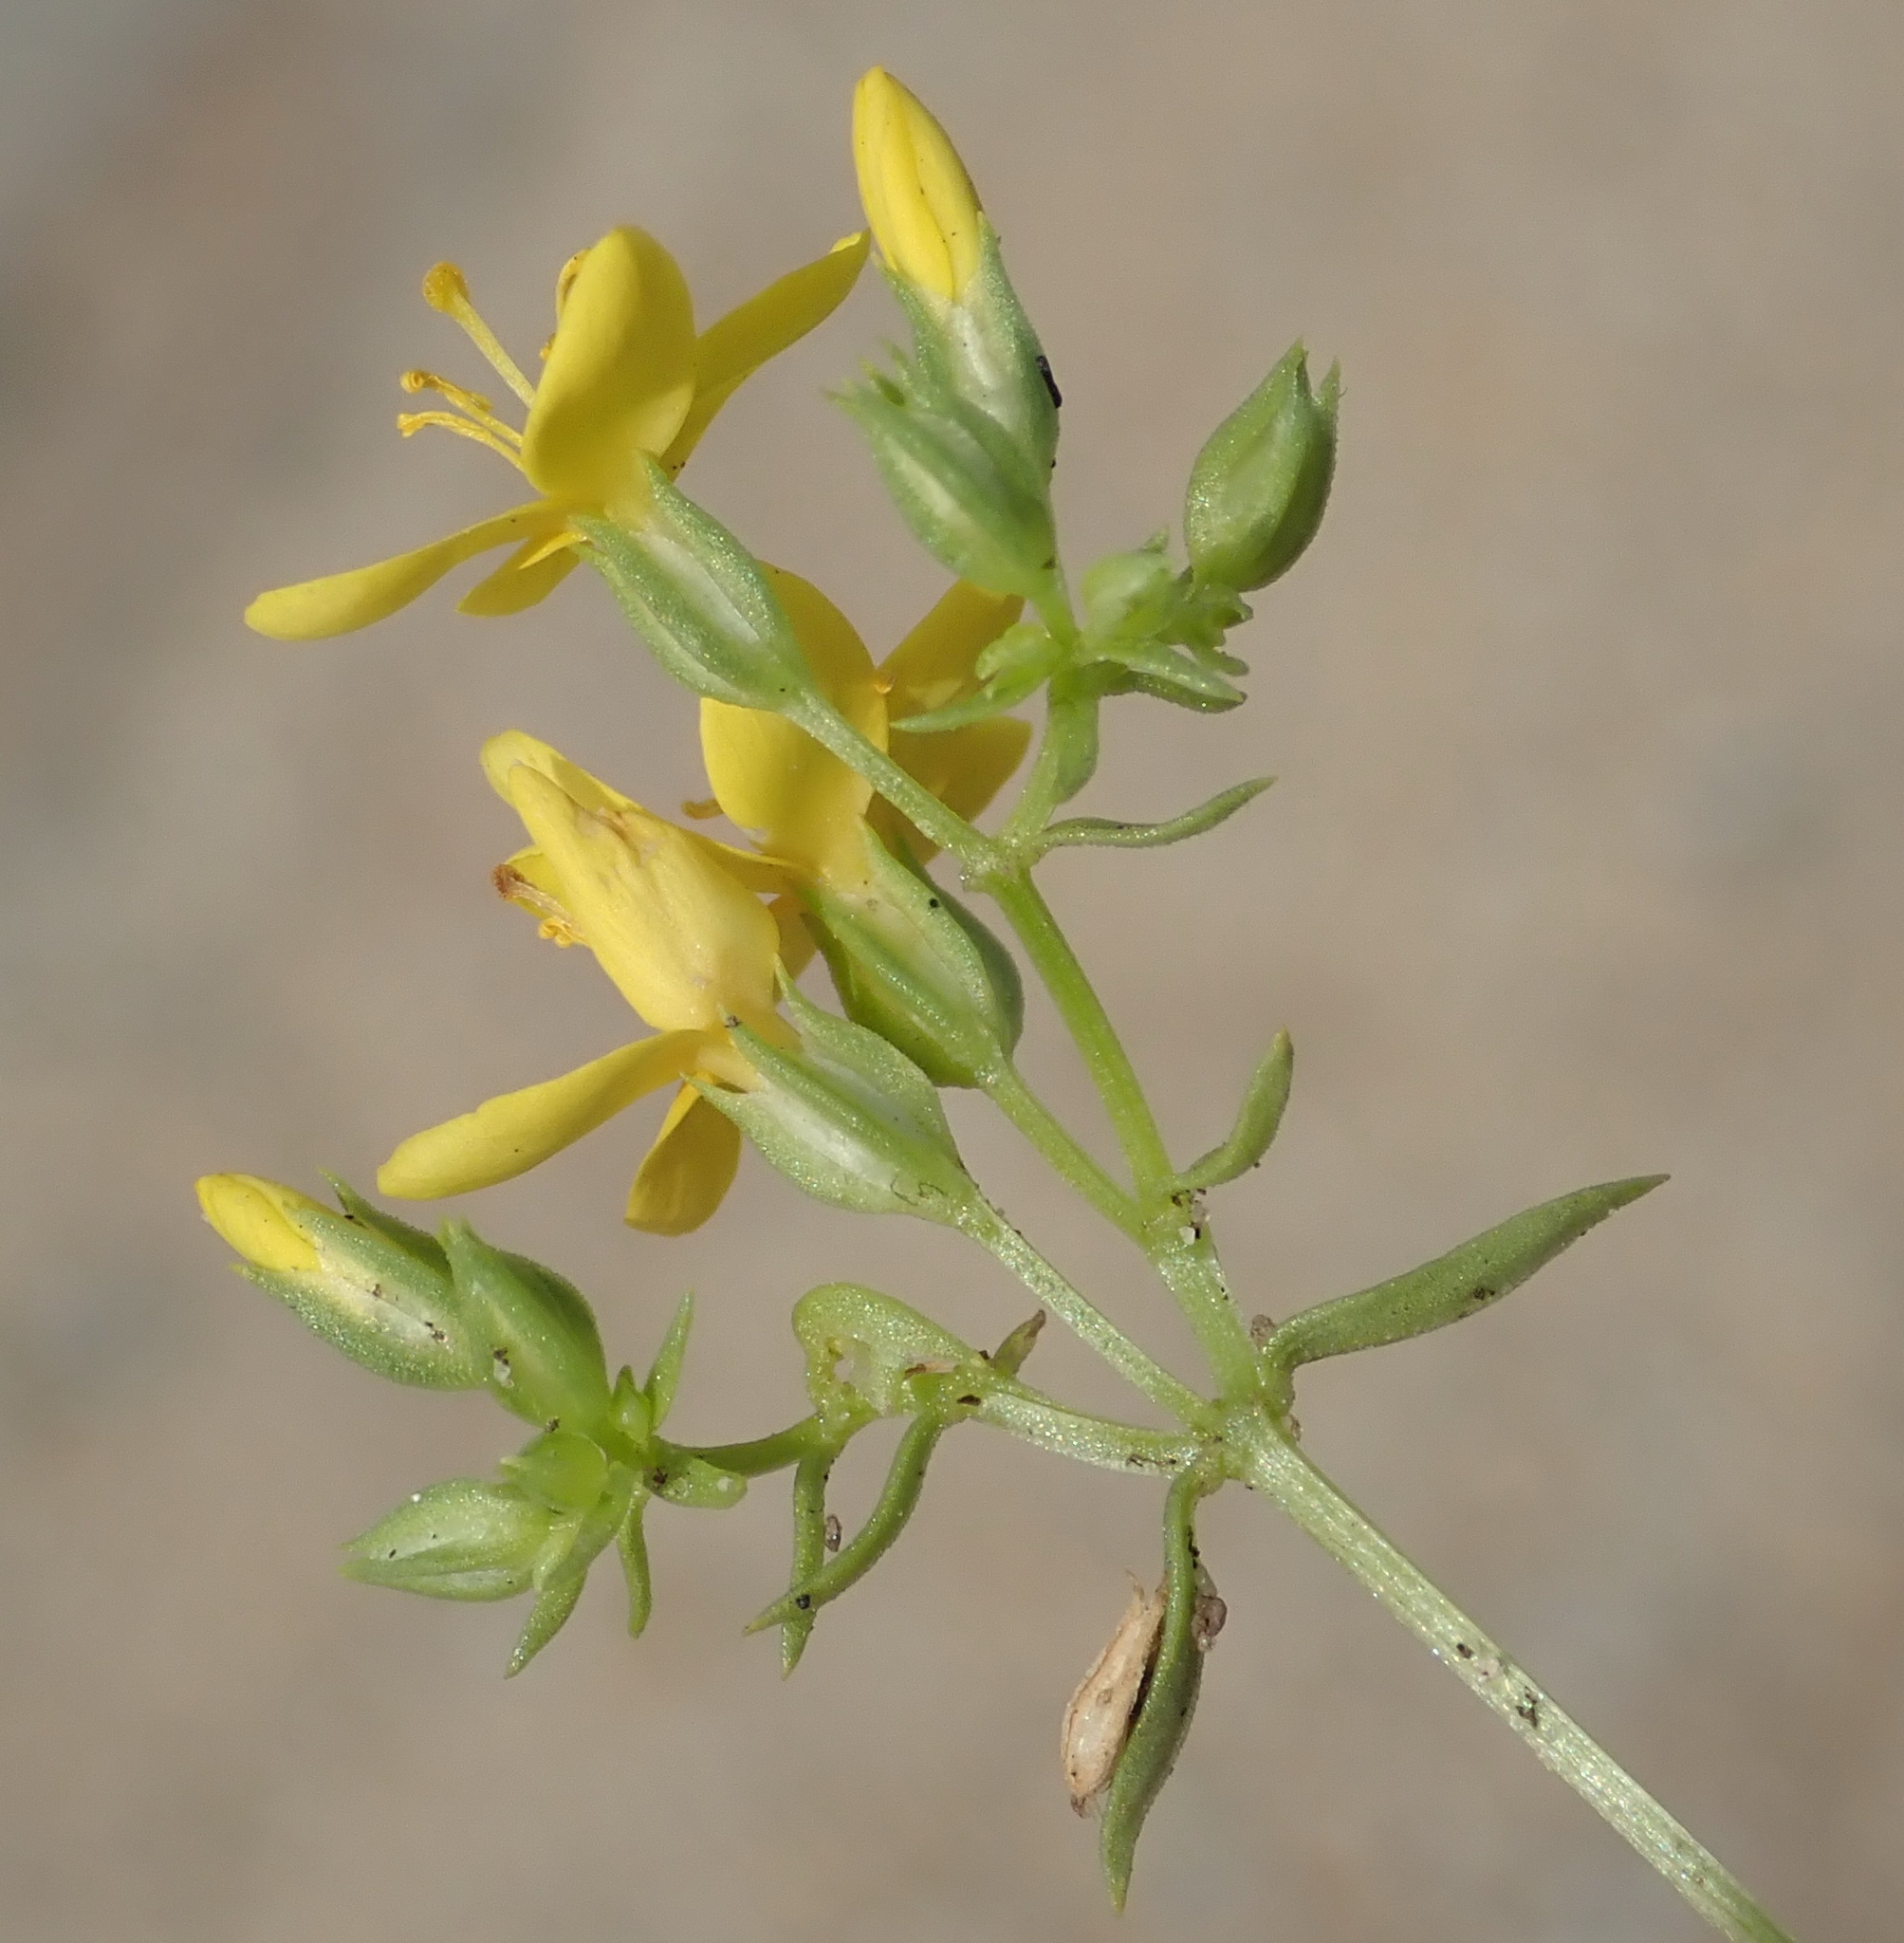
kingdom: Plantae
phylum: Tracheophyta
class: Magnoliopsida
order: Gentianales
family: Gentianaceae
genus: Sebaea
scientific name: Sebaea aurea
